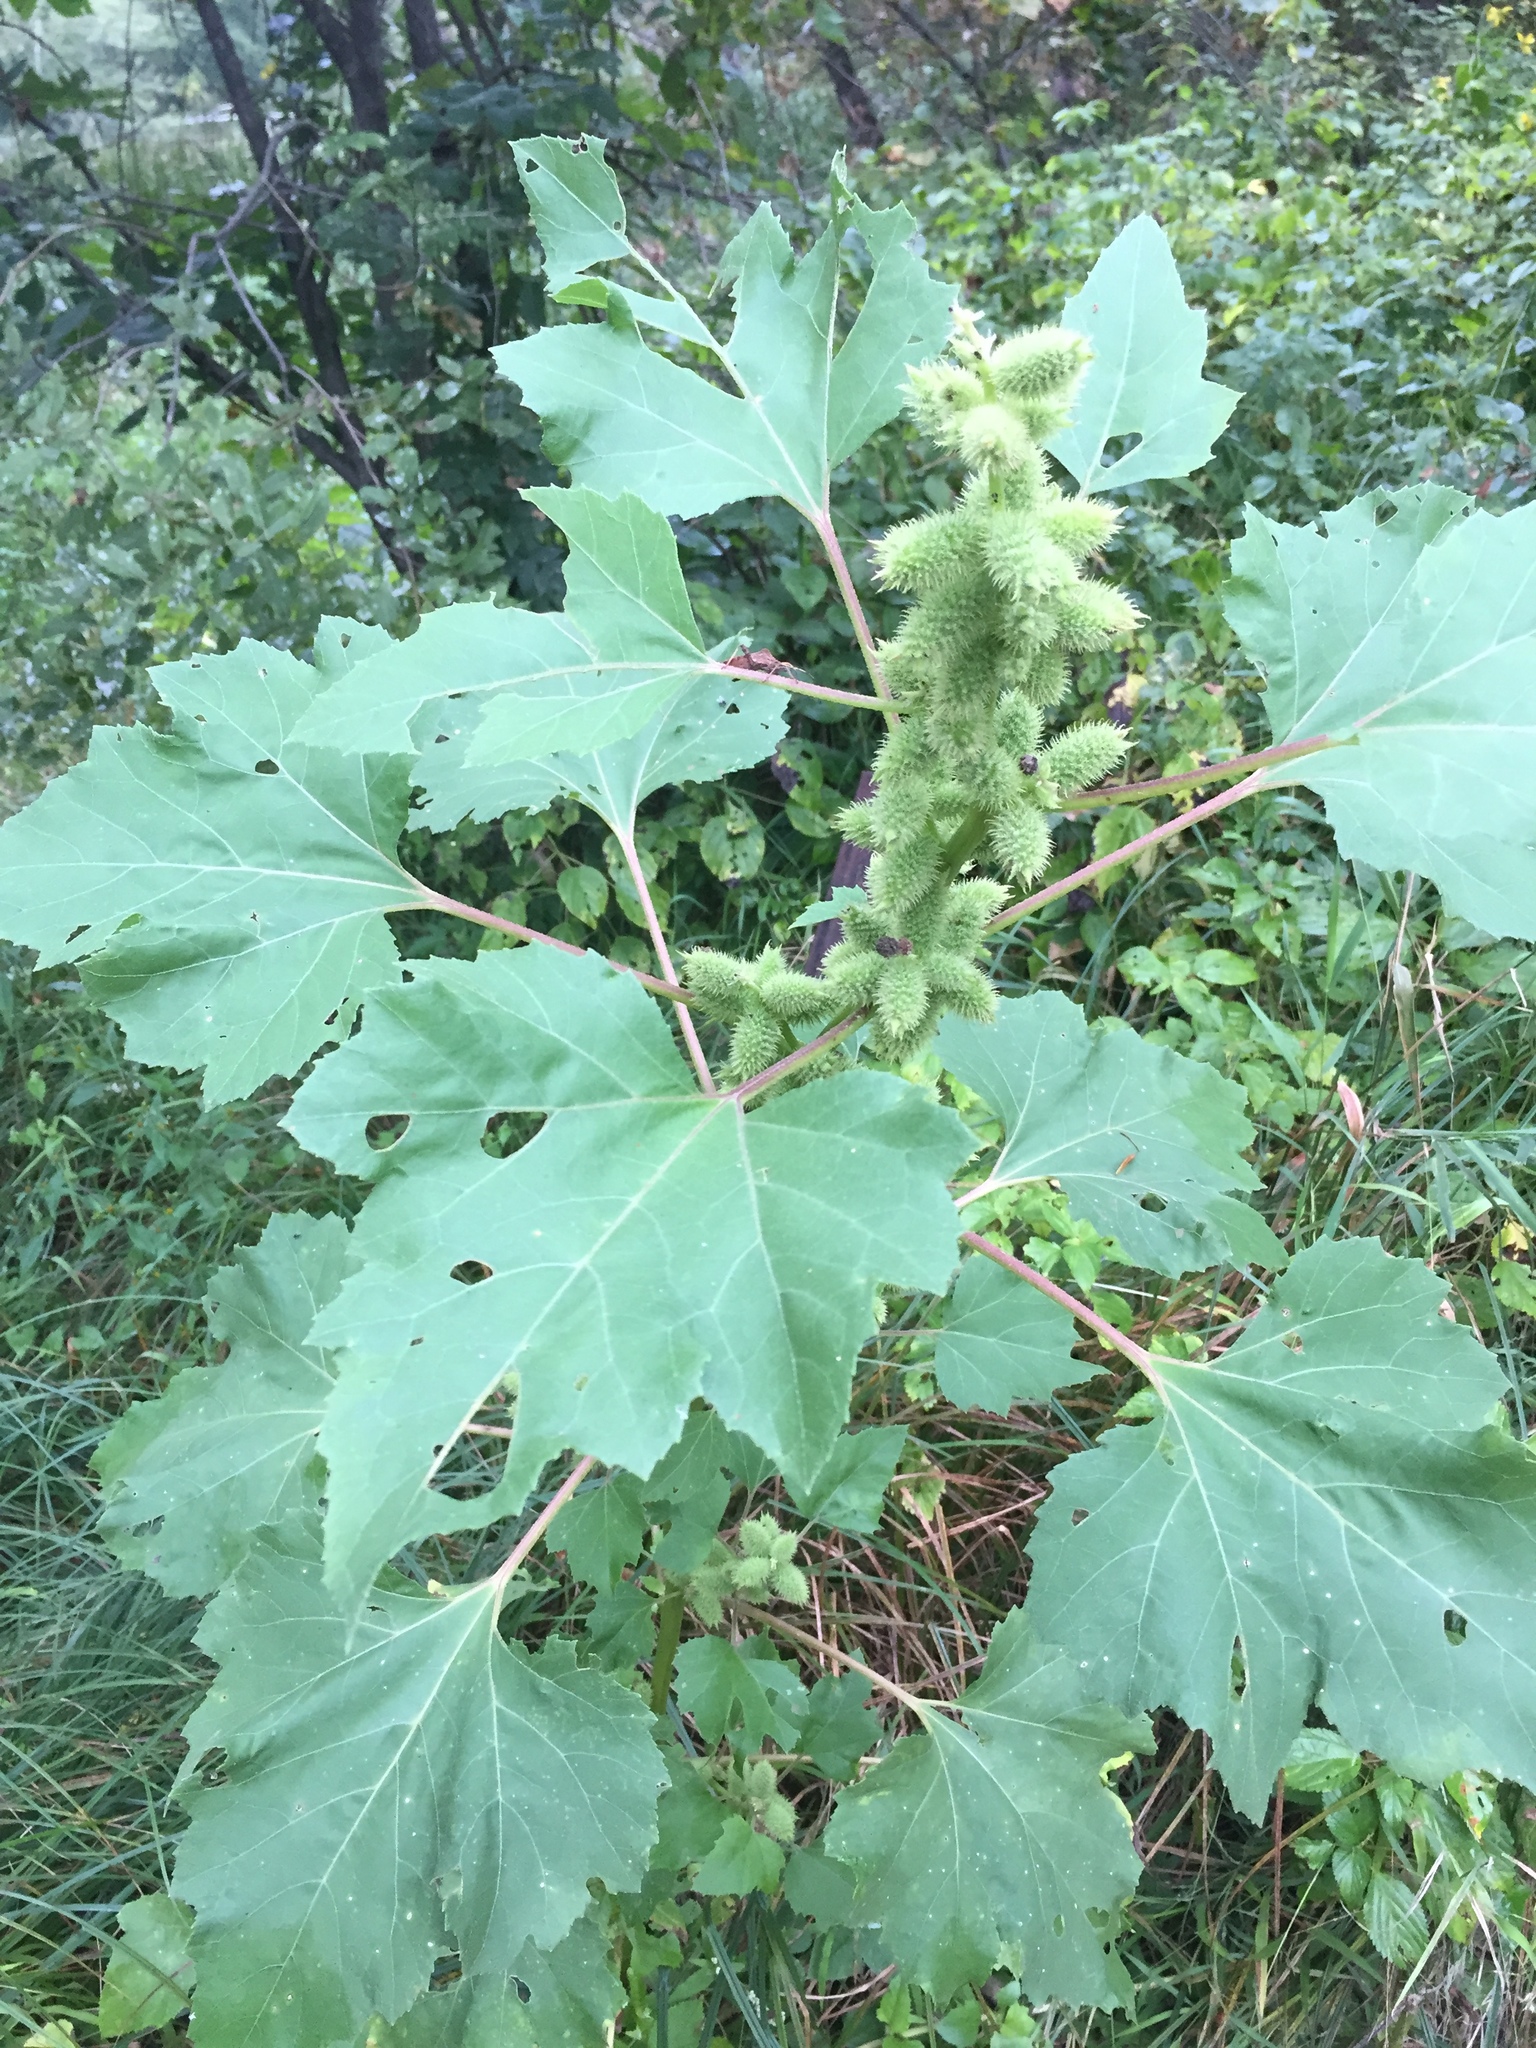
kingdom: Plantae
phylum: Tracheophyta
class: Magnoliopsida
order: Asterales
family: Asteraceae
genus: Xanthium
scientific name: Xanthium strumarium
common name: Rough cocklebur
